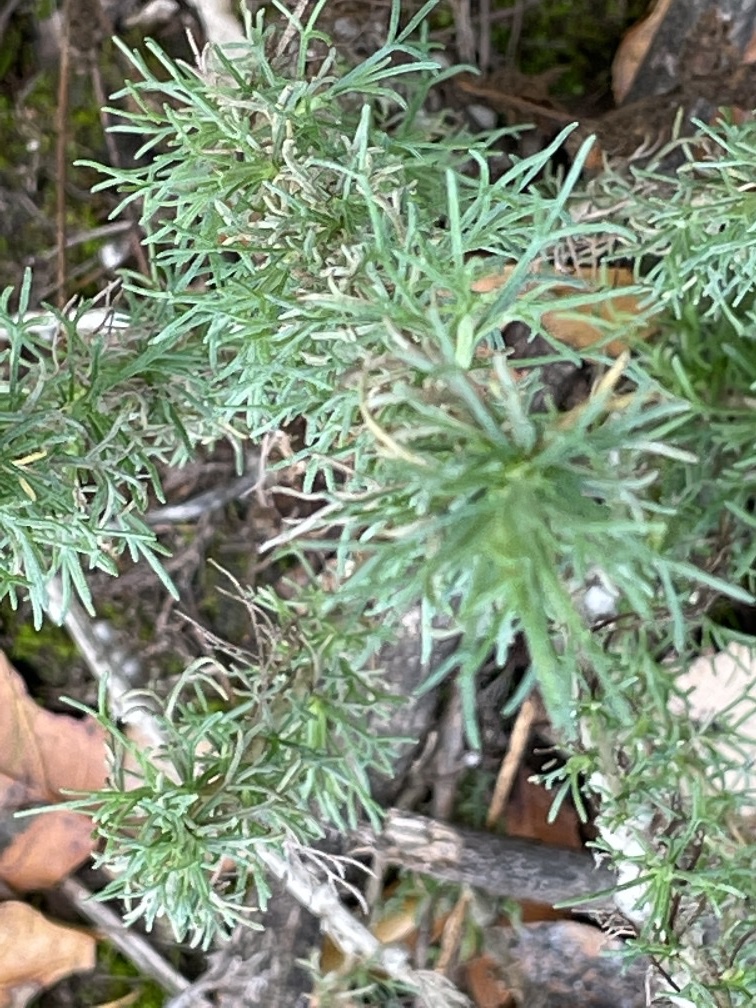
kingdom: Plantae
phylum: Tracheophyta
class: Magnoliopsida
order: Asterales
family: Asteraceae
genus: Artemisia
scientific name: Artemisia californica
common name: California sagebrush
